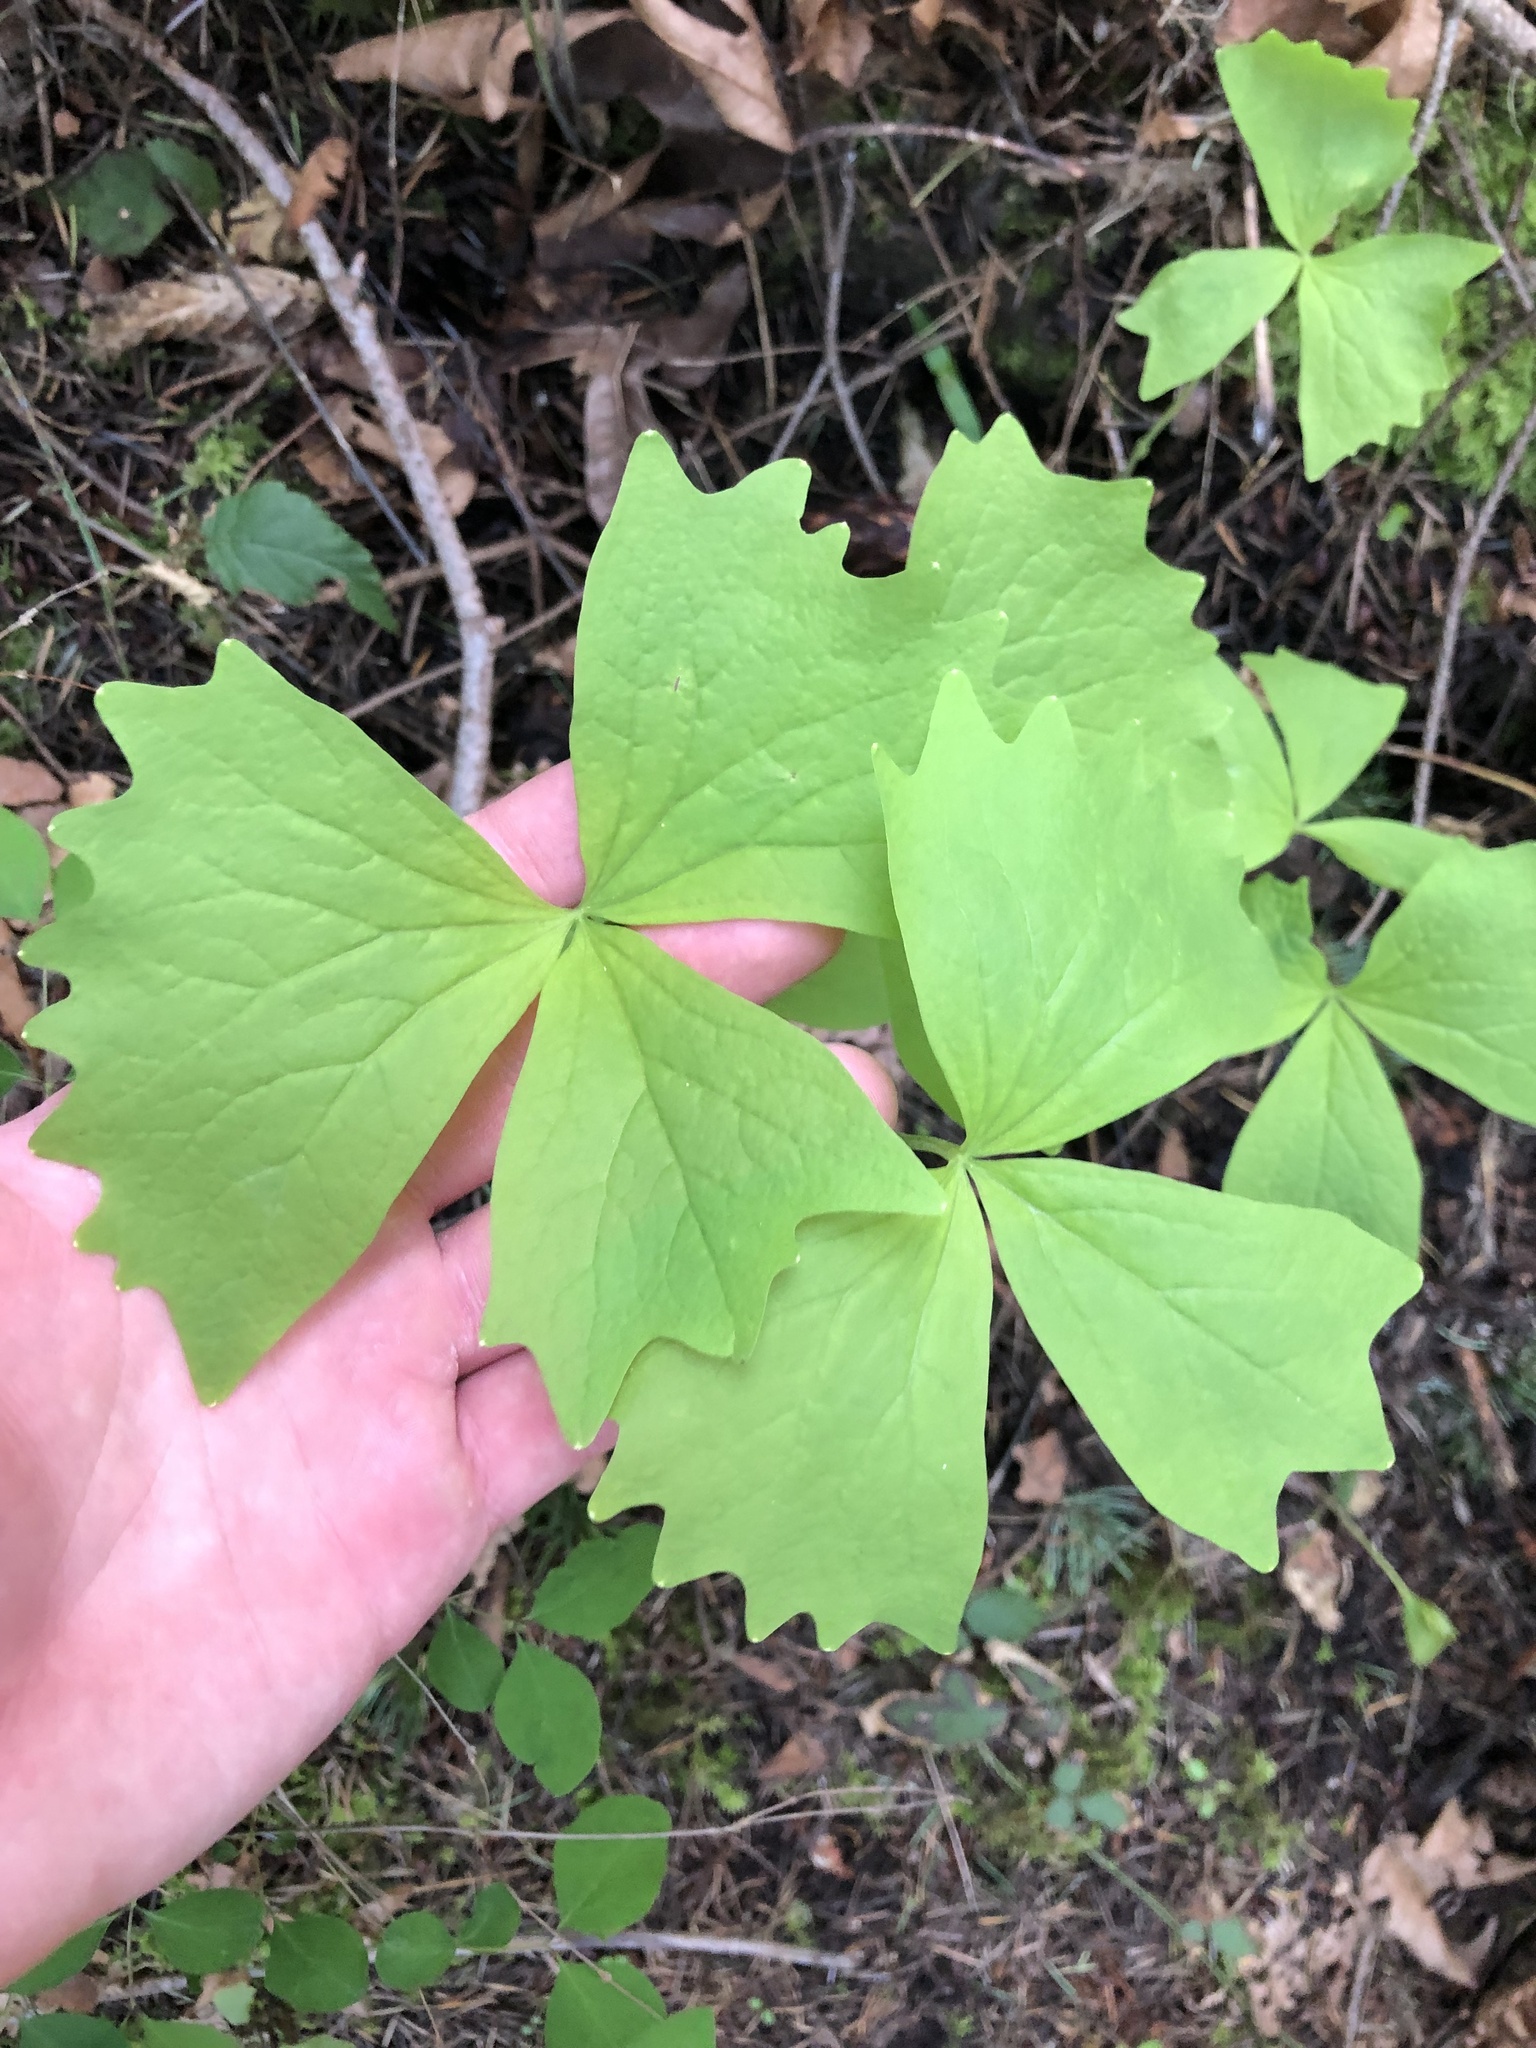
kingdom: Plantae
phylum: Tracheophyta
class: Magnoliopsida
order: Ranunculales
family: Berberidaceae
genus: Achlys
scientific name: Achlys triphylla
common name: Vanilla-leaf
